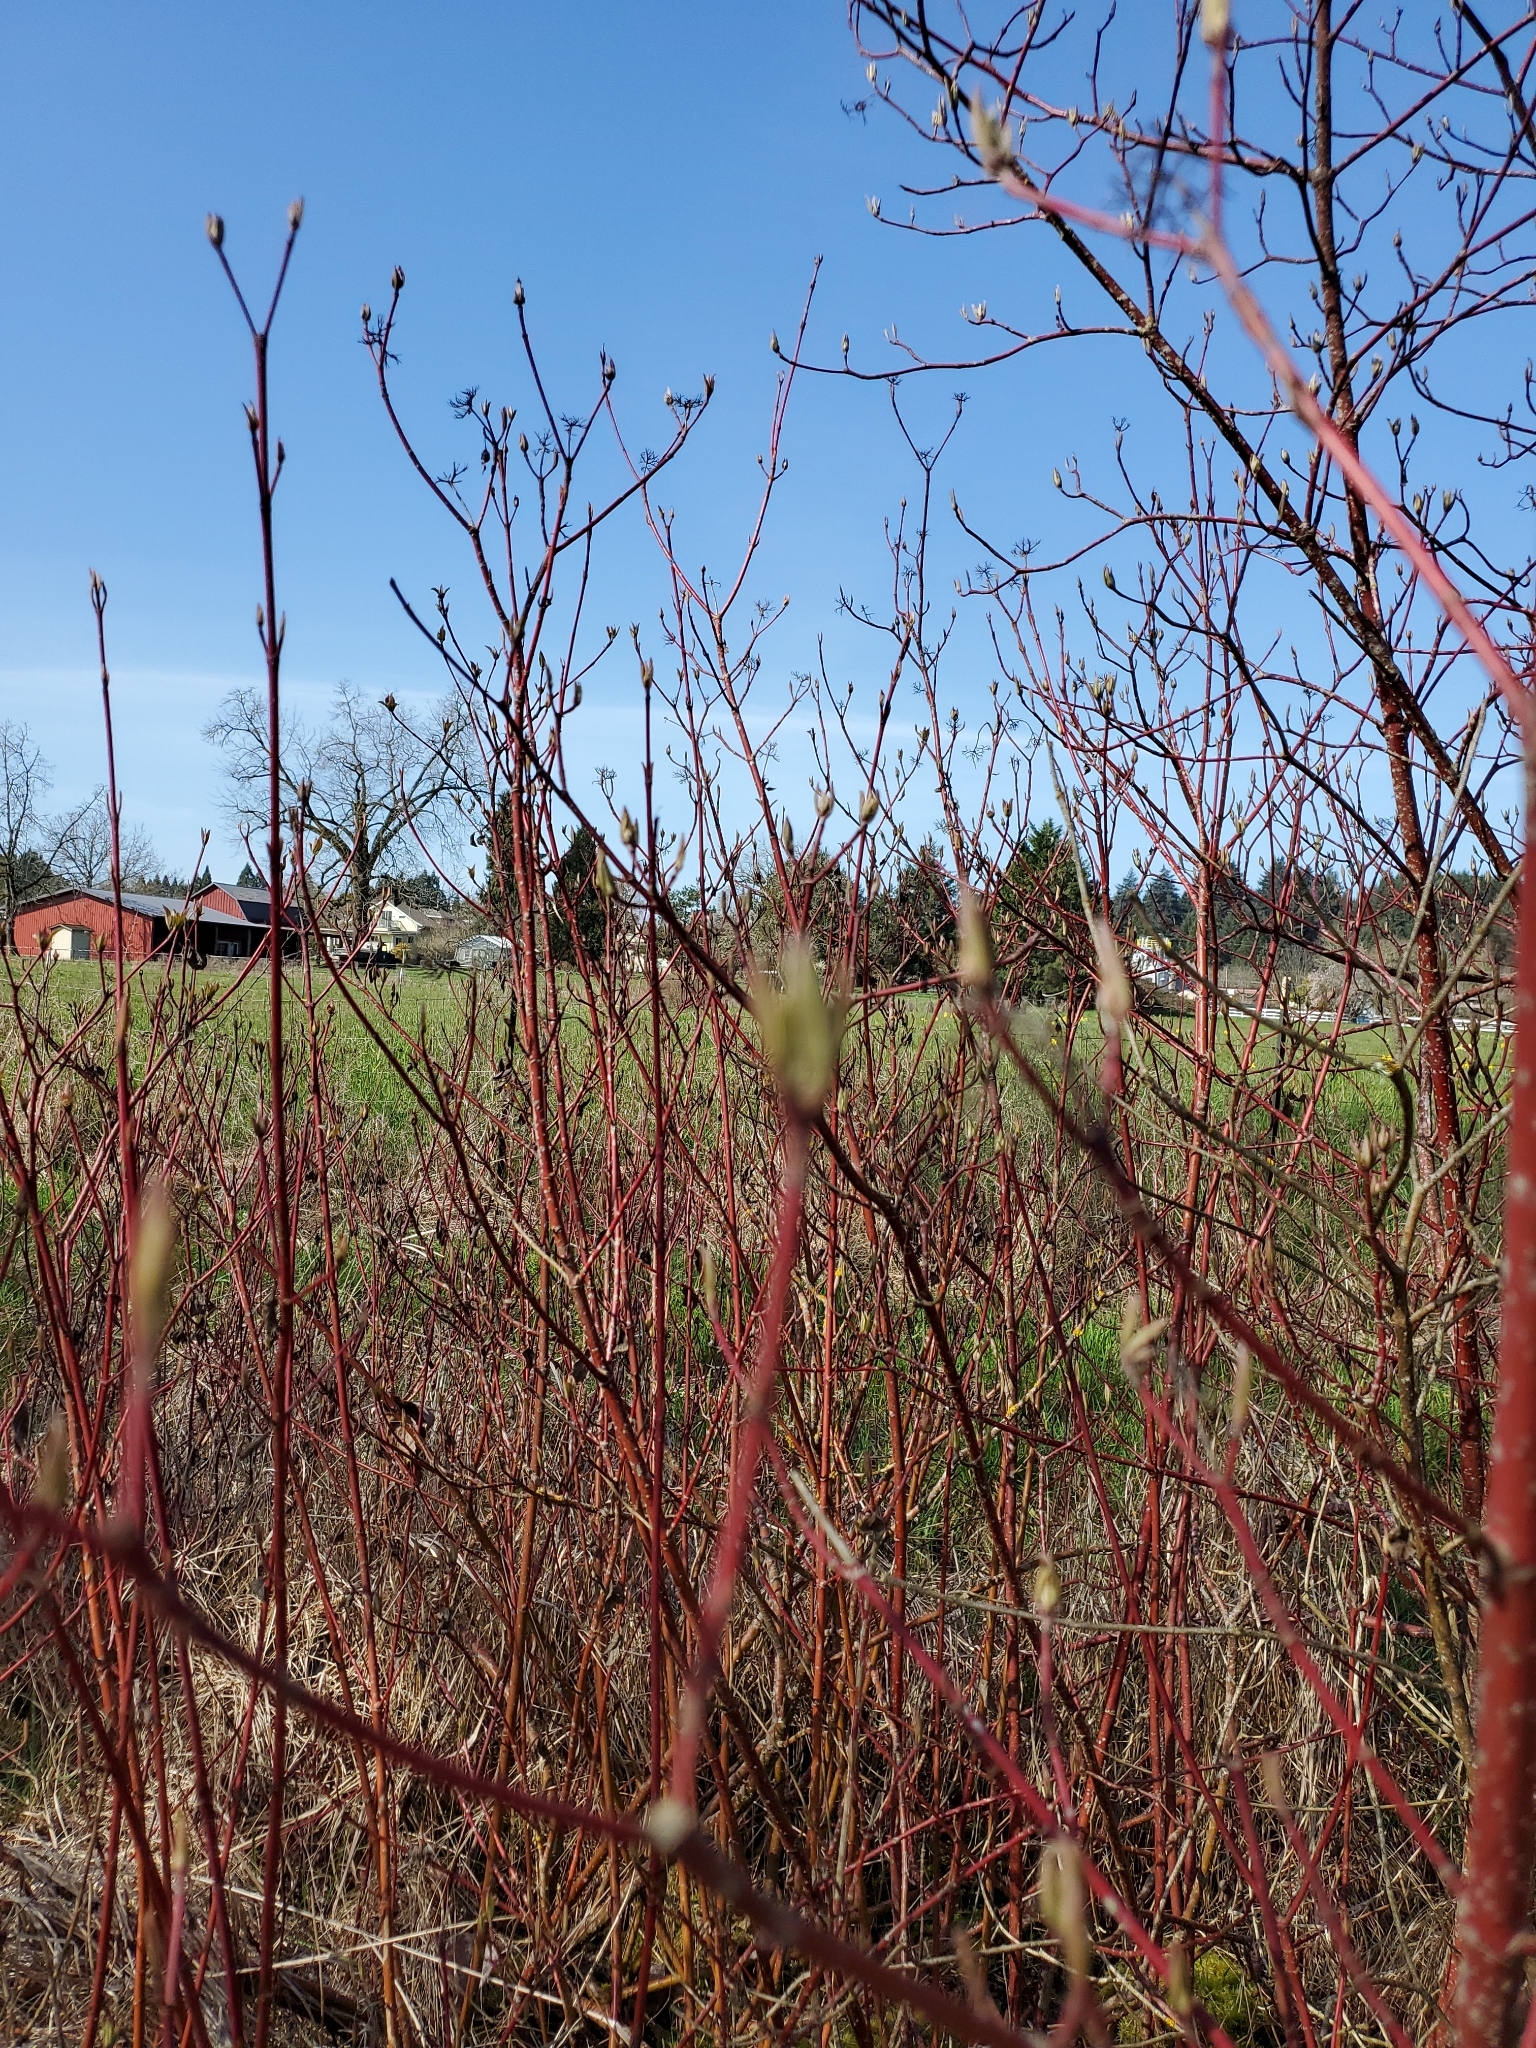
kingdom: Plantae
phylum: Tracheophyta
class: Magnoliopsida
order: Cornales
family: Cornaceae
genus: Cornus
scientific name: Cornus sericea
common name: Red-osier dogwood
